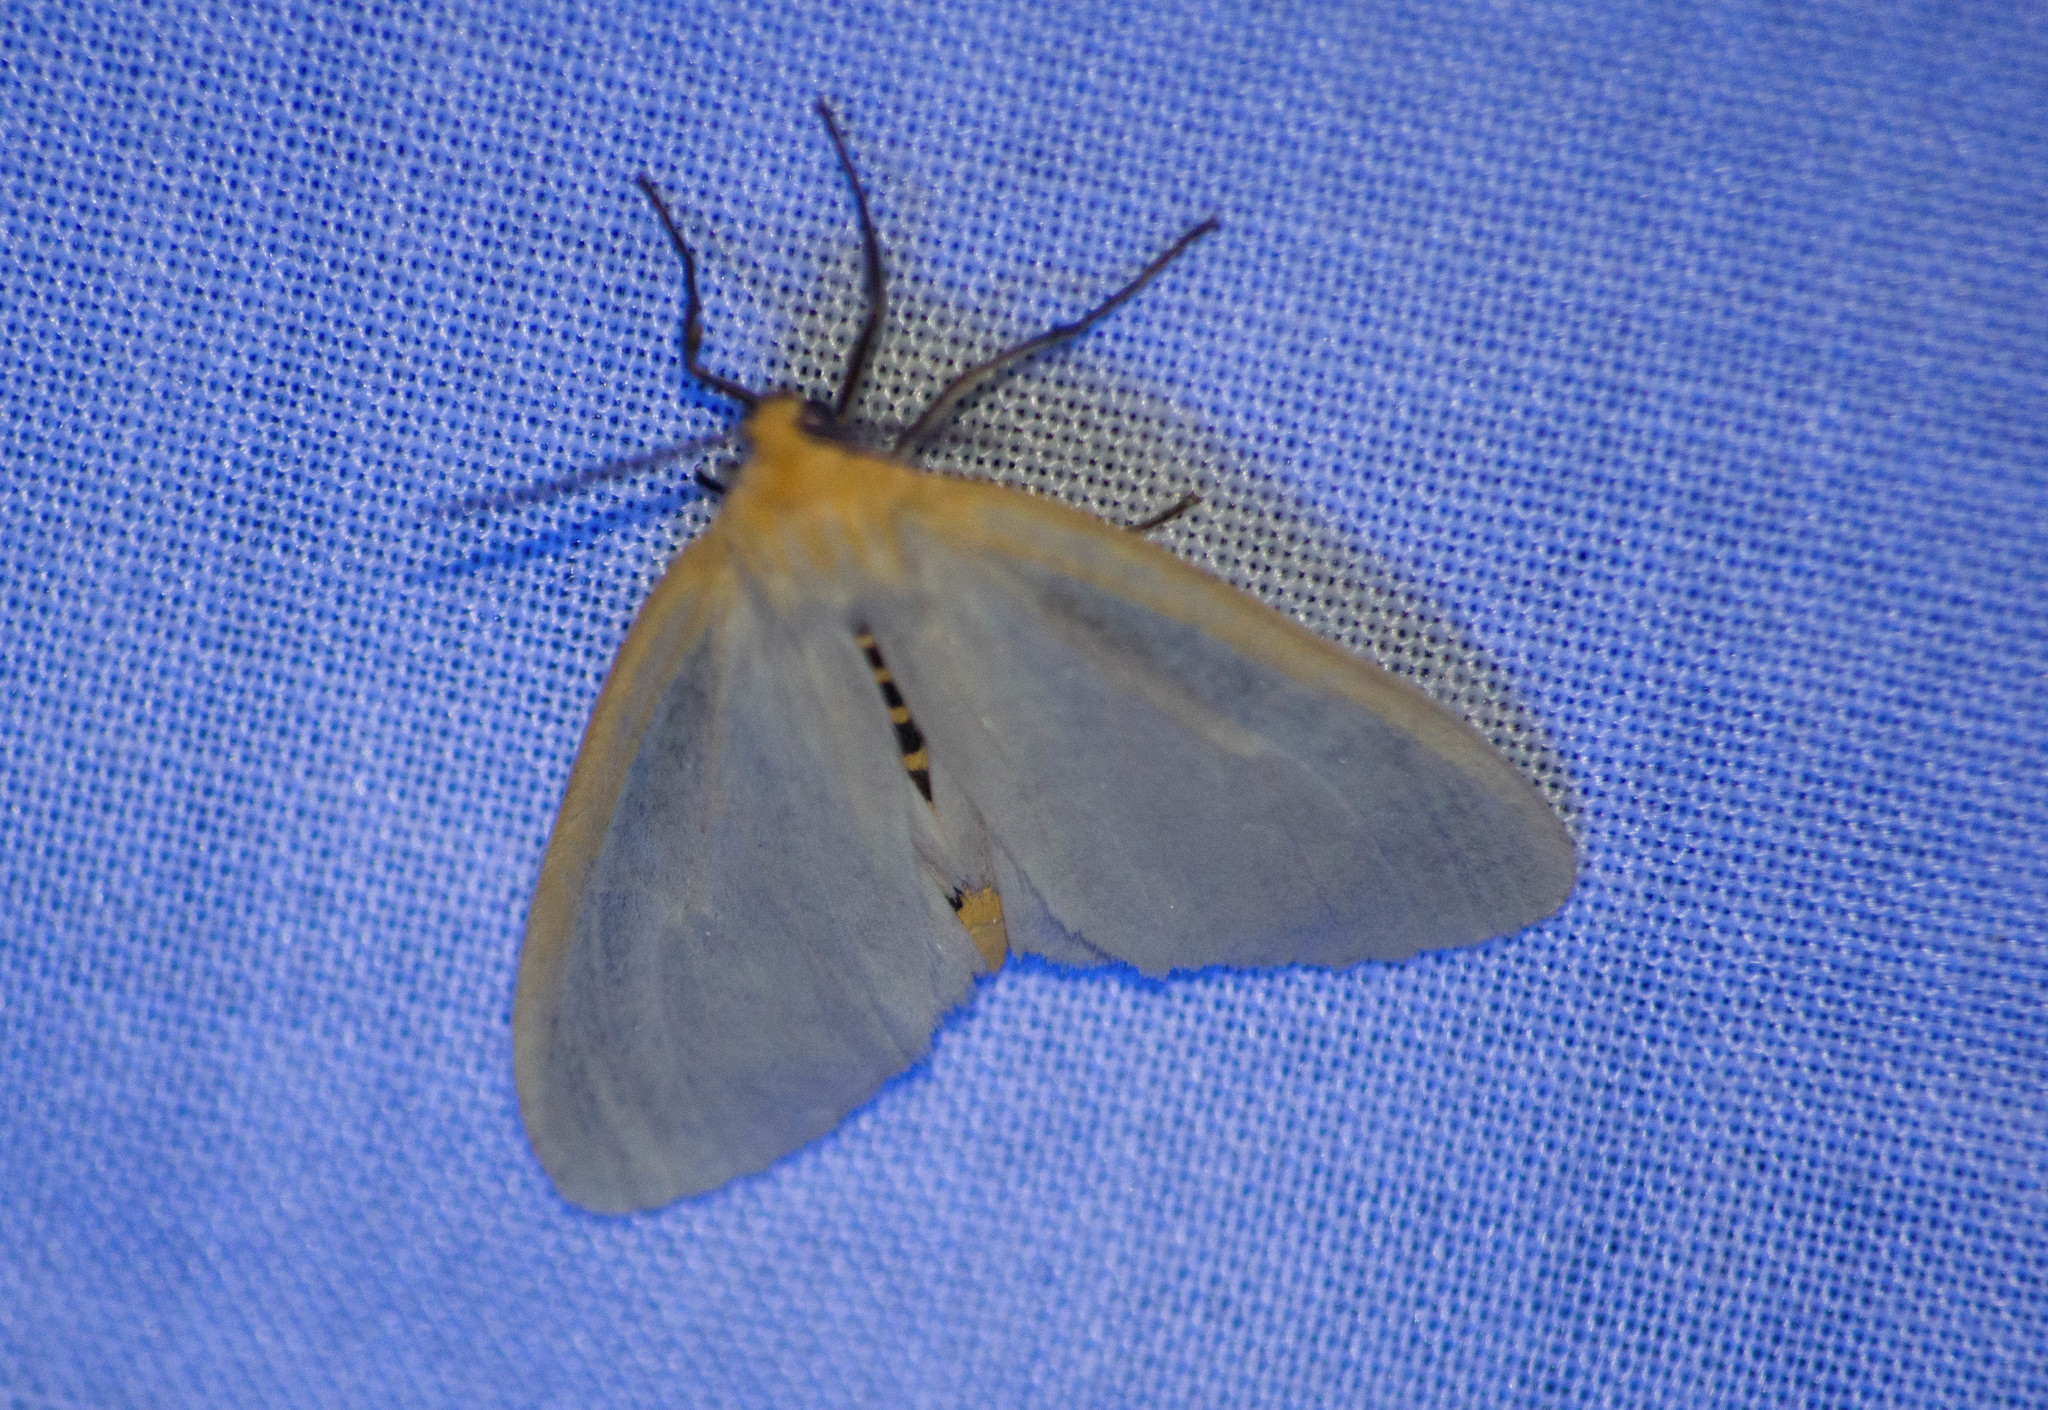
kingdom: Animalia
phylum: Arthropoda
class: Insecta
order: Lepidoptera
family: Erebidae
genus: Cycnia
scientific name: Cycnia tenera
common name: Delicate cycnia moth
